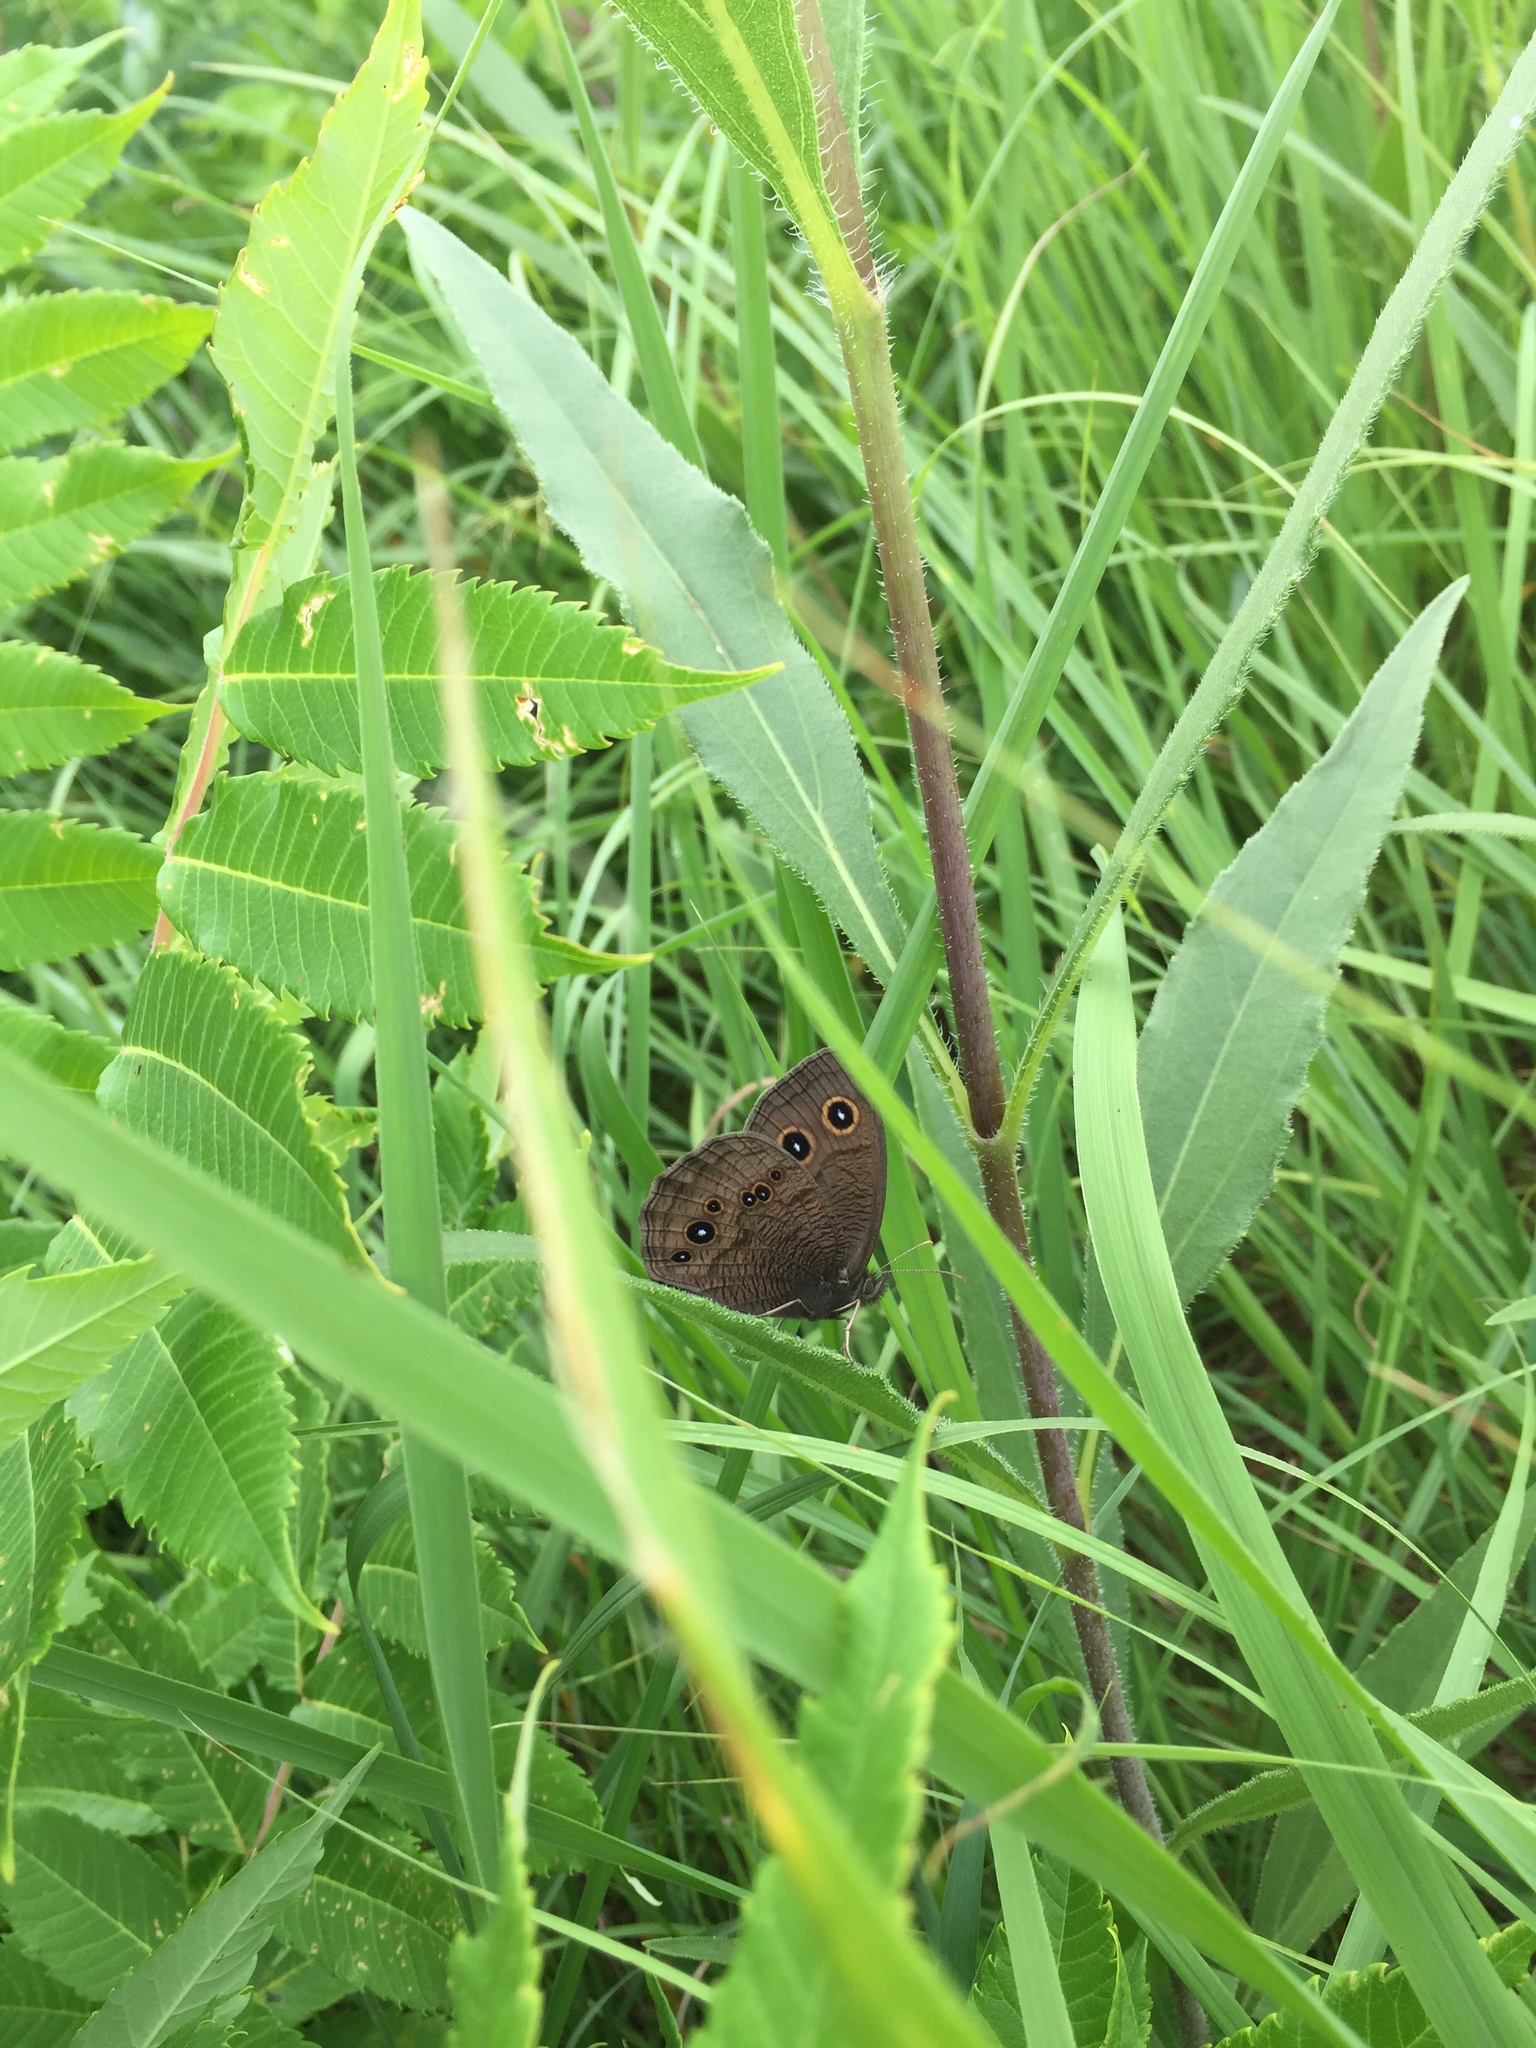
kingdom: Animalia
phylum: Arthropoda
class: Insecta
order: Lepidoptera
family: Nymphalidae
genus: Cercyonis
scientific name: Cercyonis pegala
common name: Common wood-nymph
